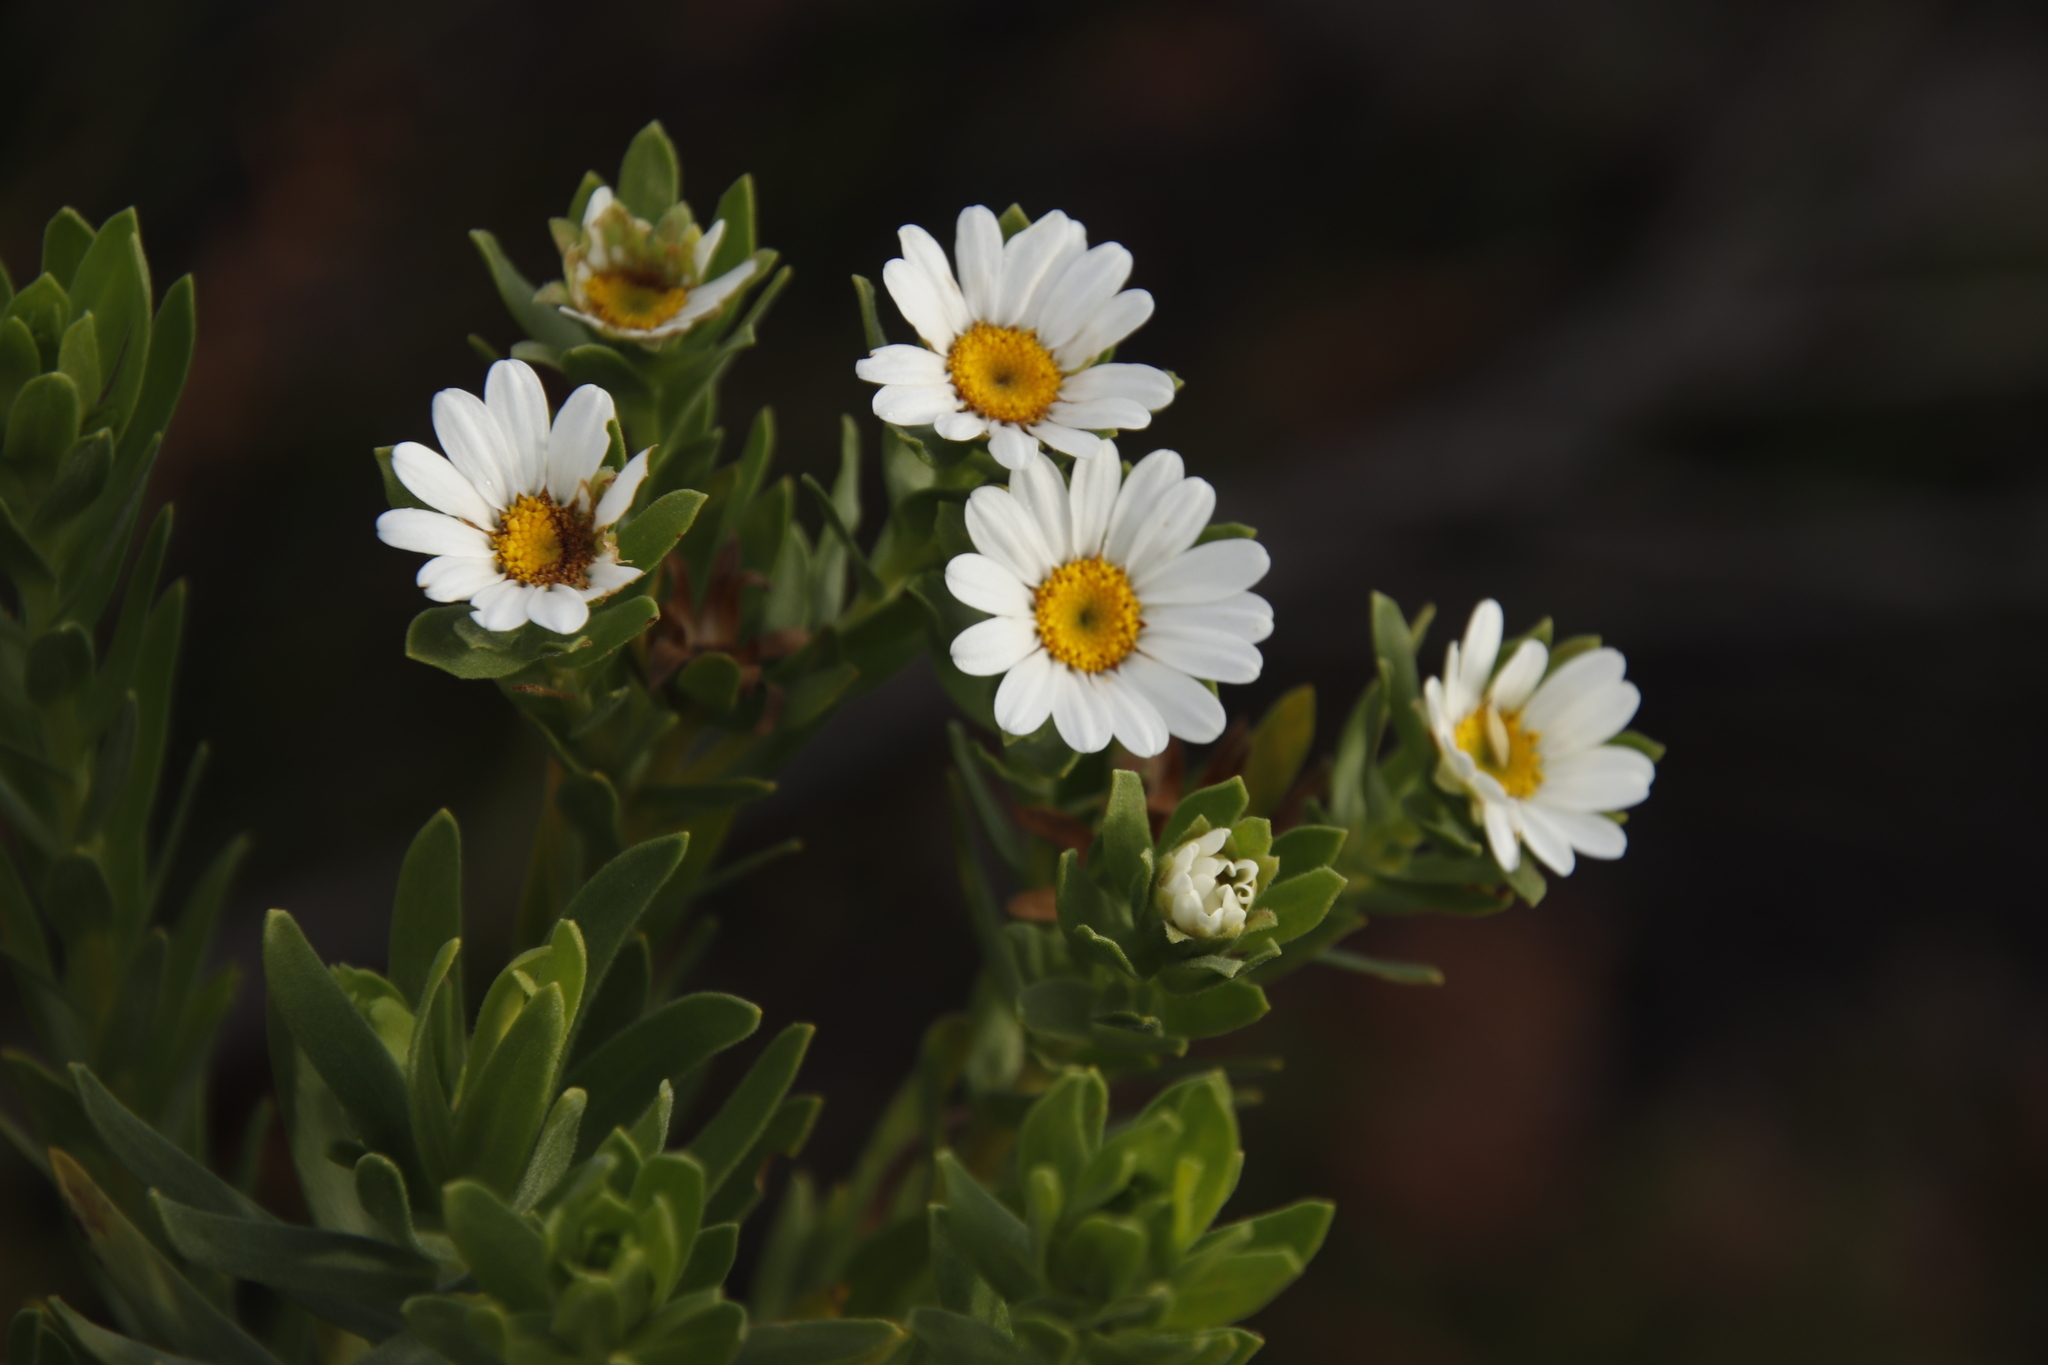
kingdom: Plantae
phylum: Tracheophyta
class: Magnoliopsida
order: Asterales
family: Asteraceae
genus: Osmitopsis
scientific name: Osmitopsis asteriscoides
